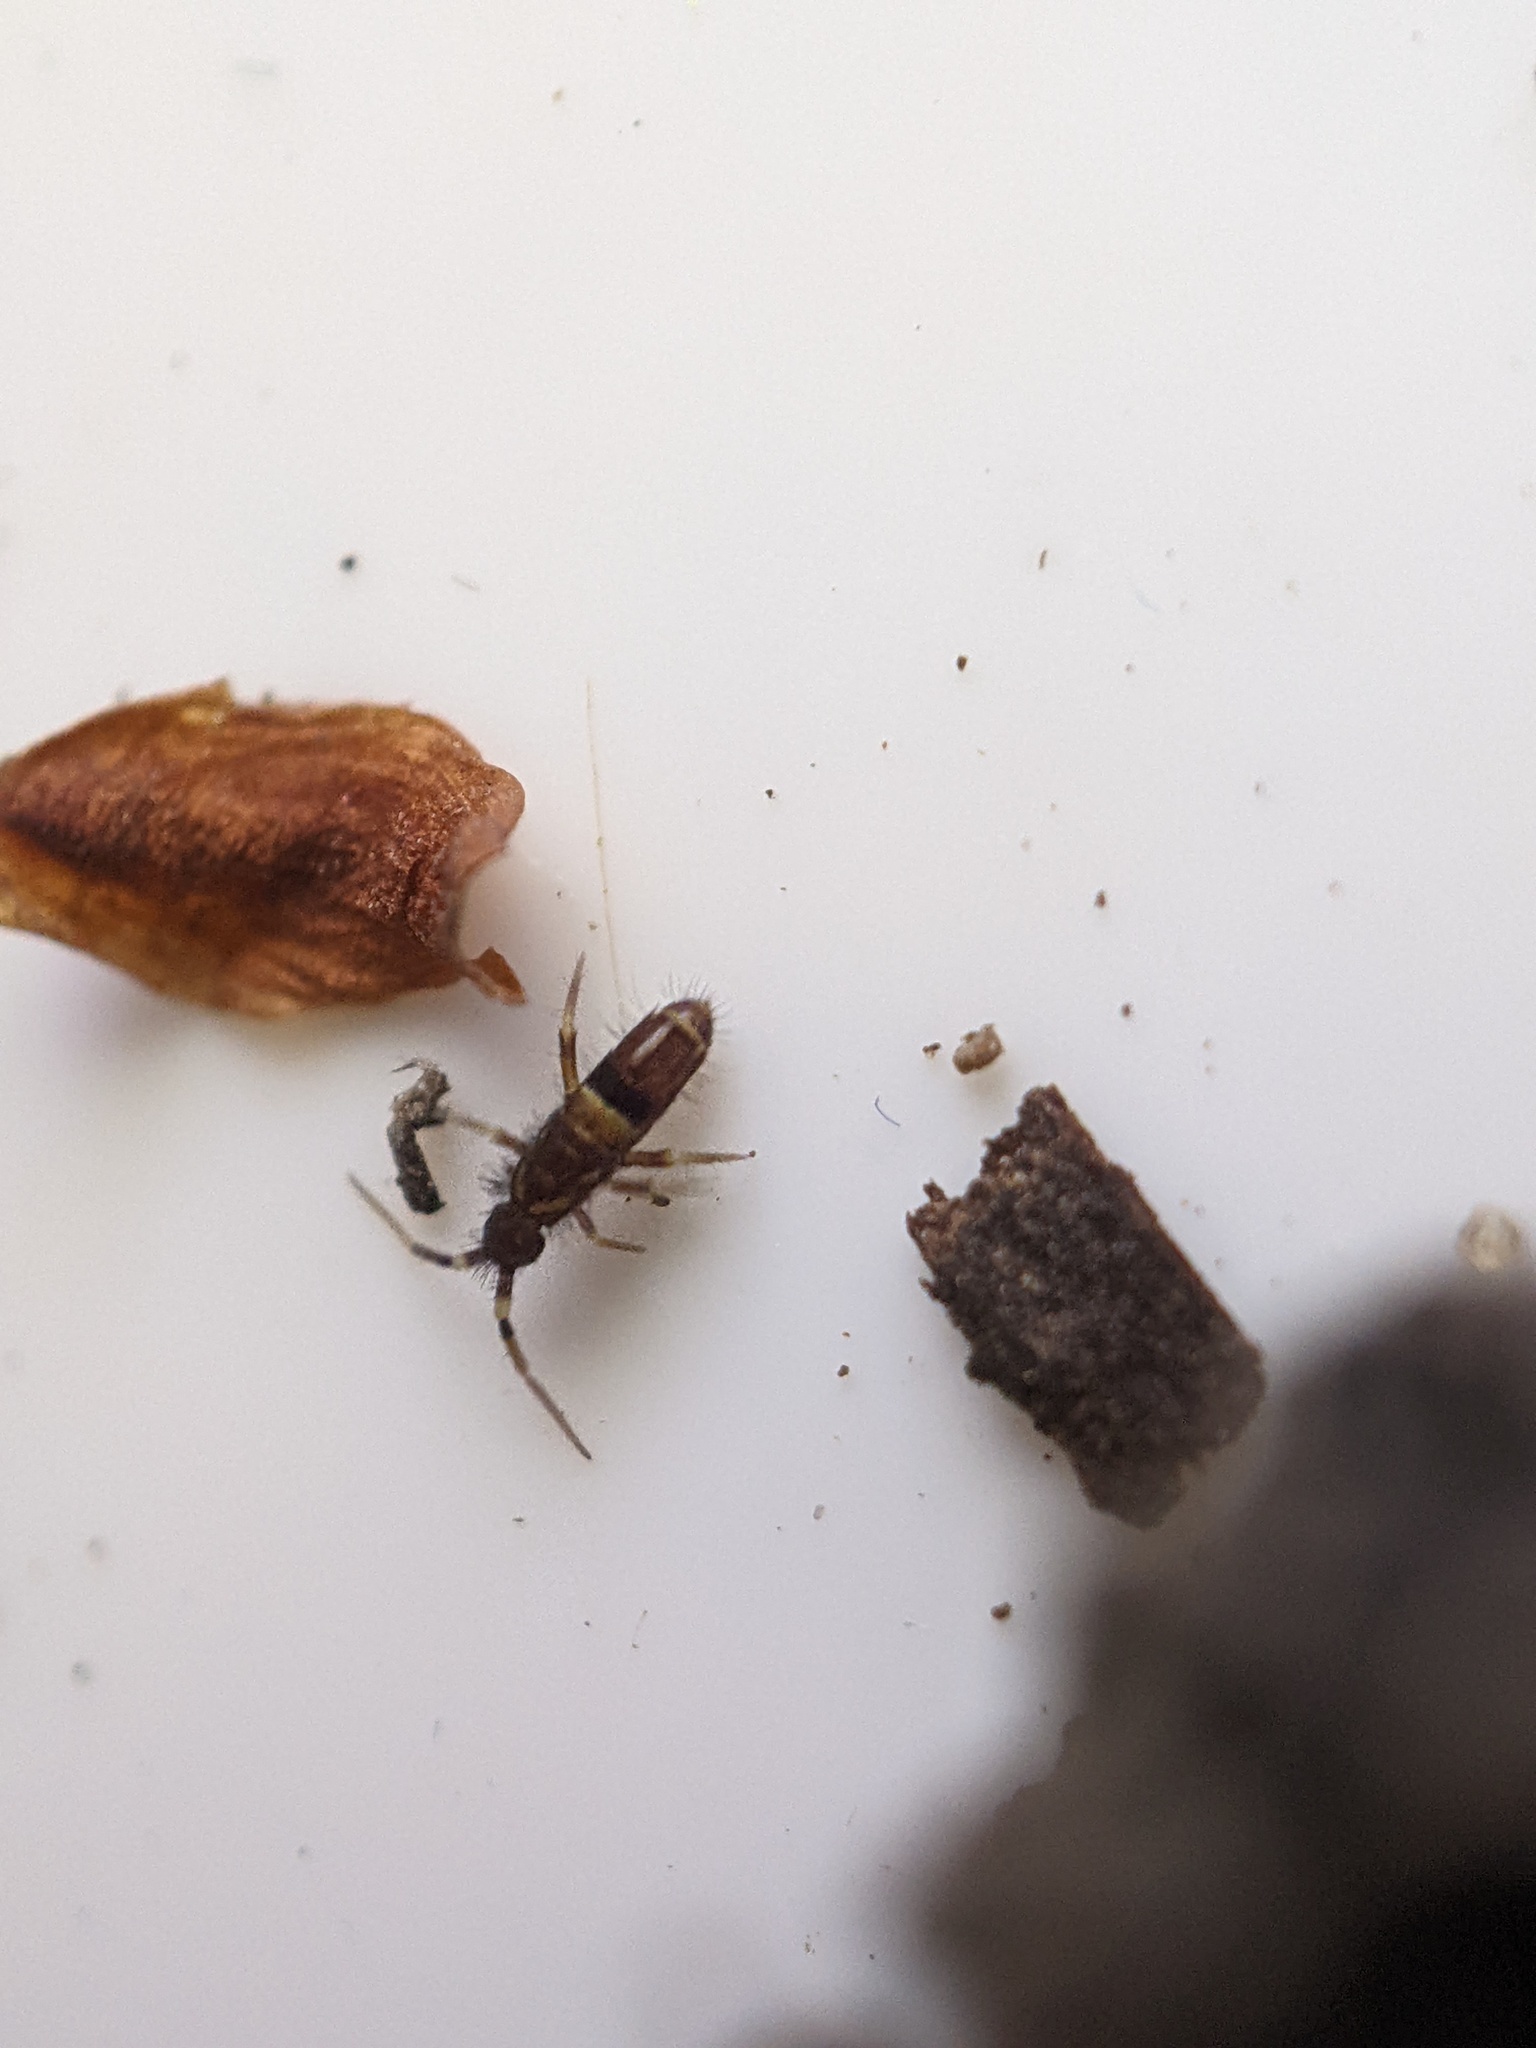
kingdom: Animalia
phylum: Arthropoda
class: Collembola
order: Entomobryomorpha
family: Orchesellidae
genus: Orchesella
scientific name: Orchesella cincta
